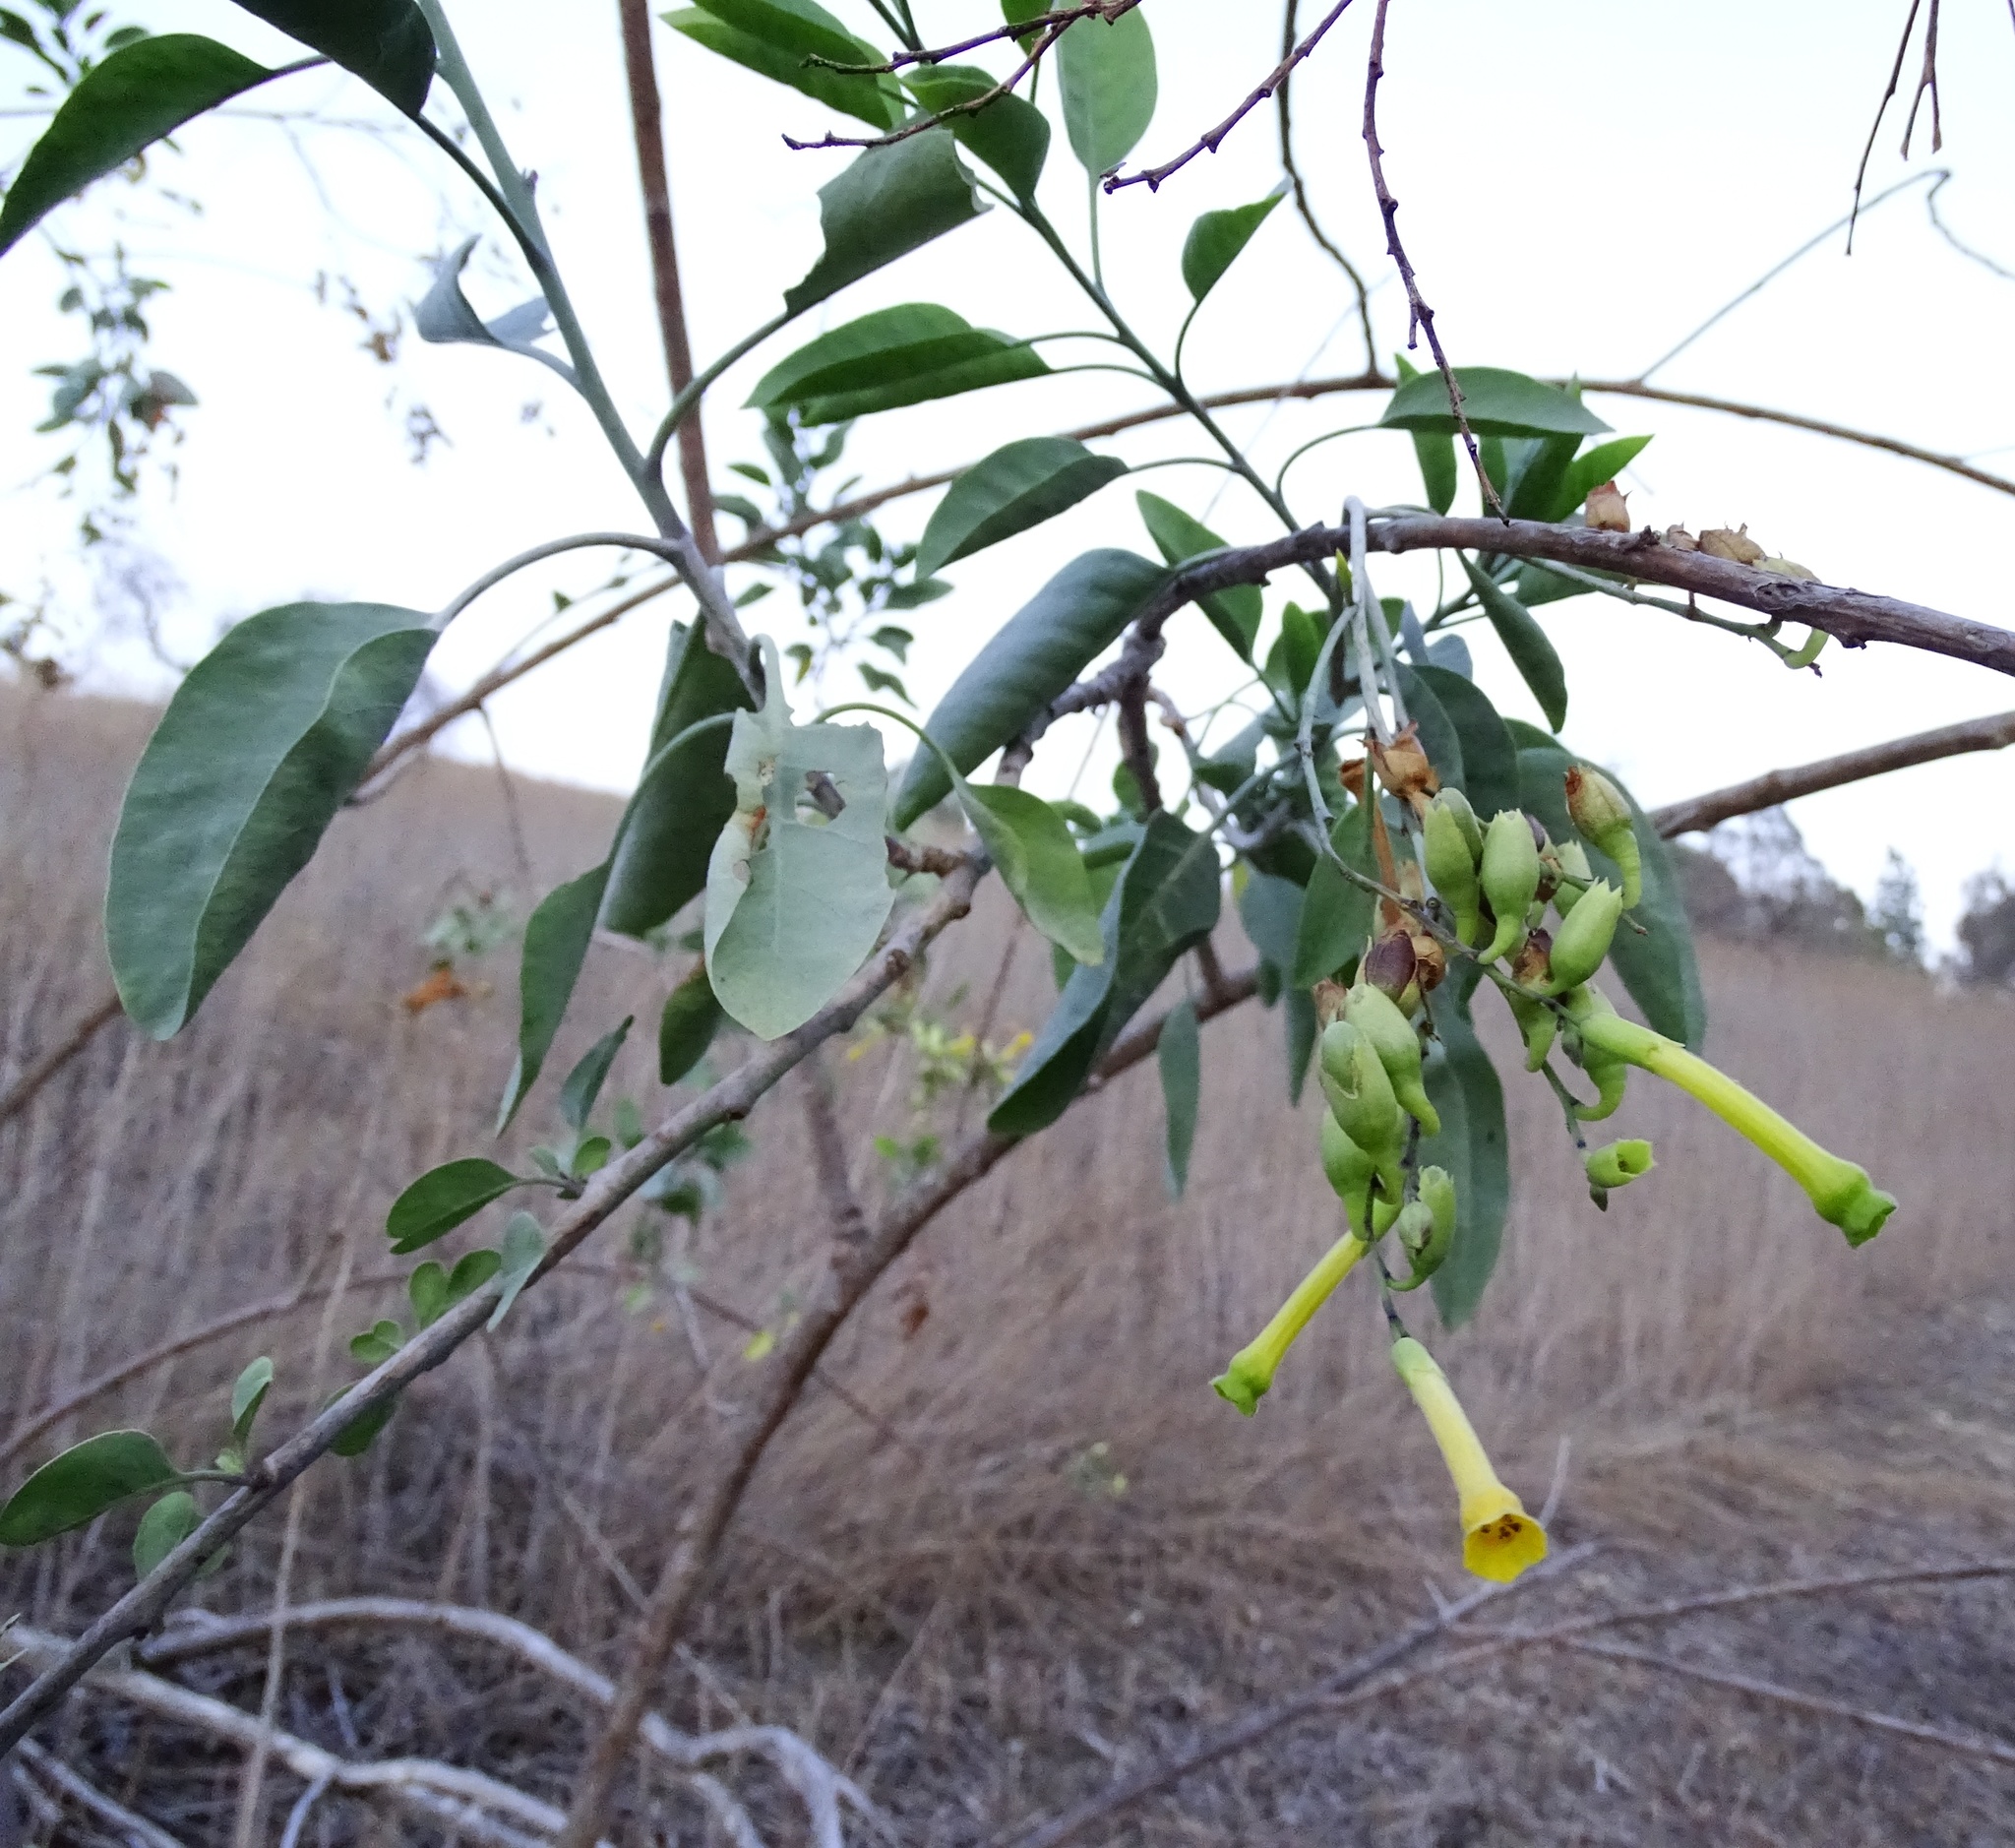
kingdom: Plantae
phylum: Tracheophyta
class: Magnoliopsida
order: Solanales
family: Solanaceae
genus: Nicotiana
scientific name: Nicotiana glauca
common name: Tree tobacco
